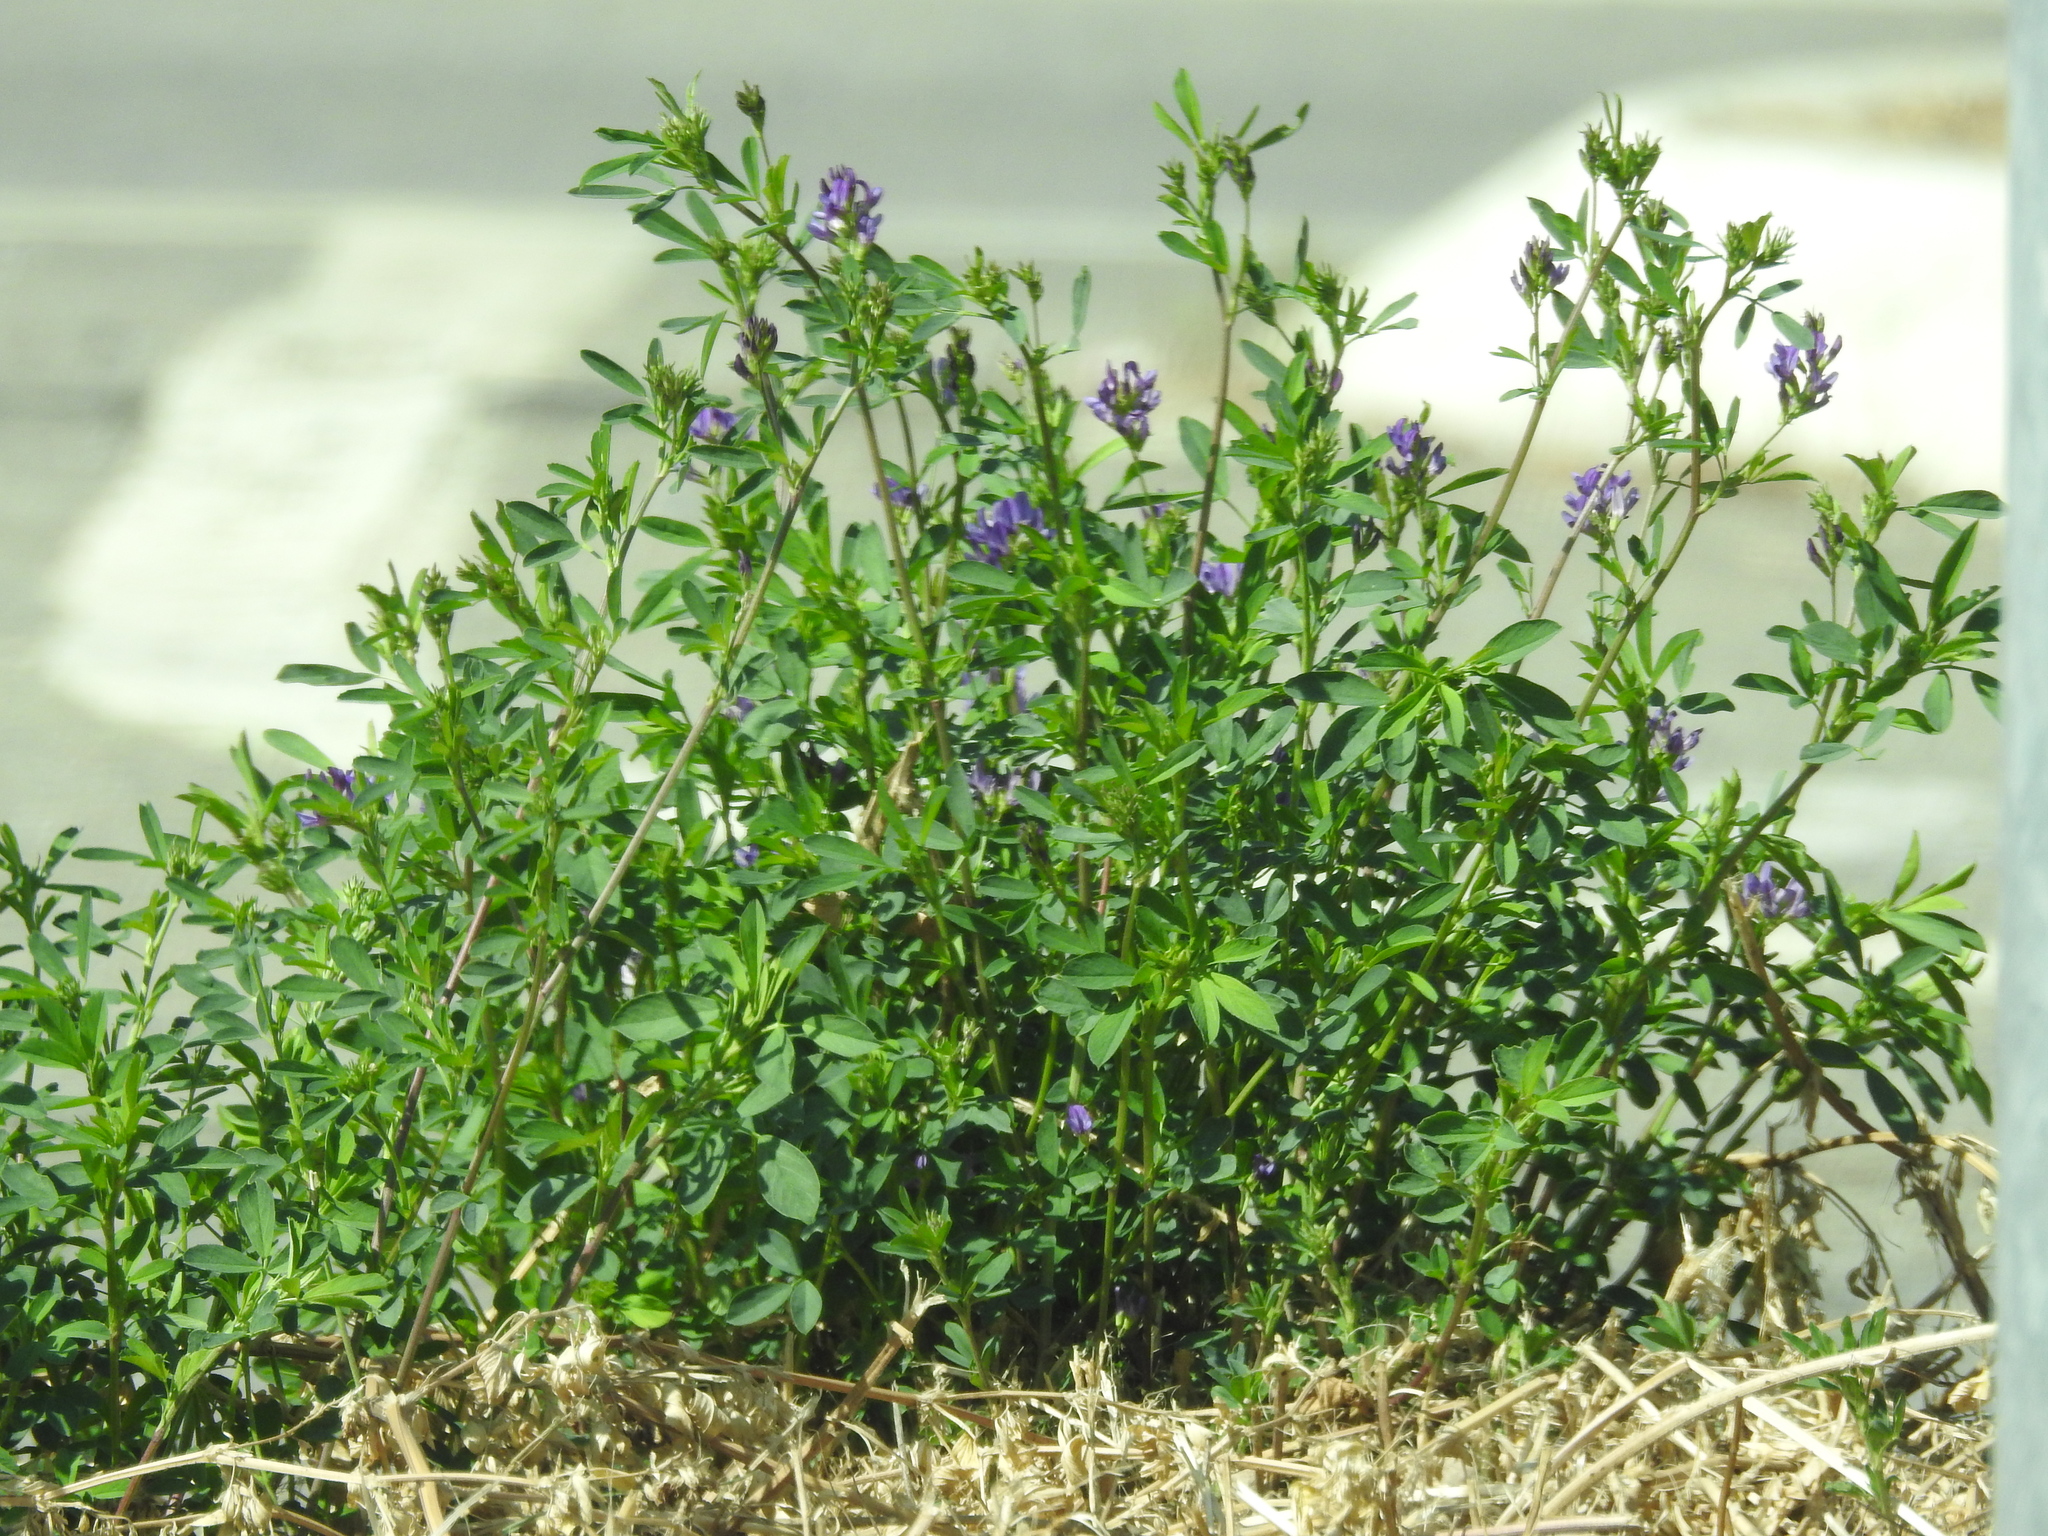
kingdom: Plantae
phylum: Tracheophyta
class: Magnoliopsida
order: Fabales
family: Fabaceae
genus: Medicago
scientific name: Medicago sativa
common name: Alfalfa
